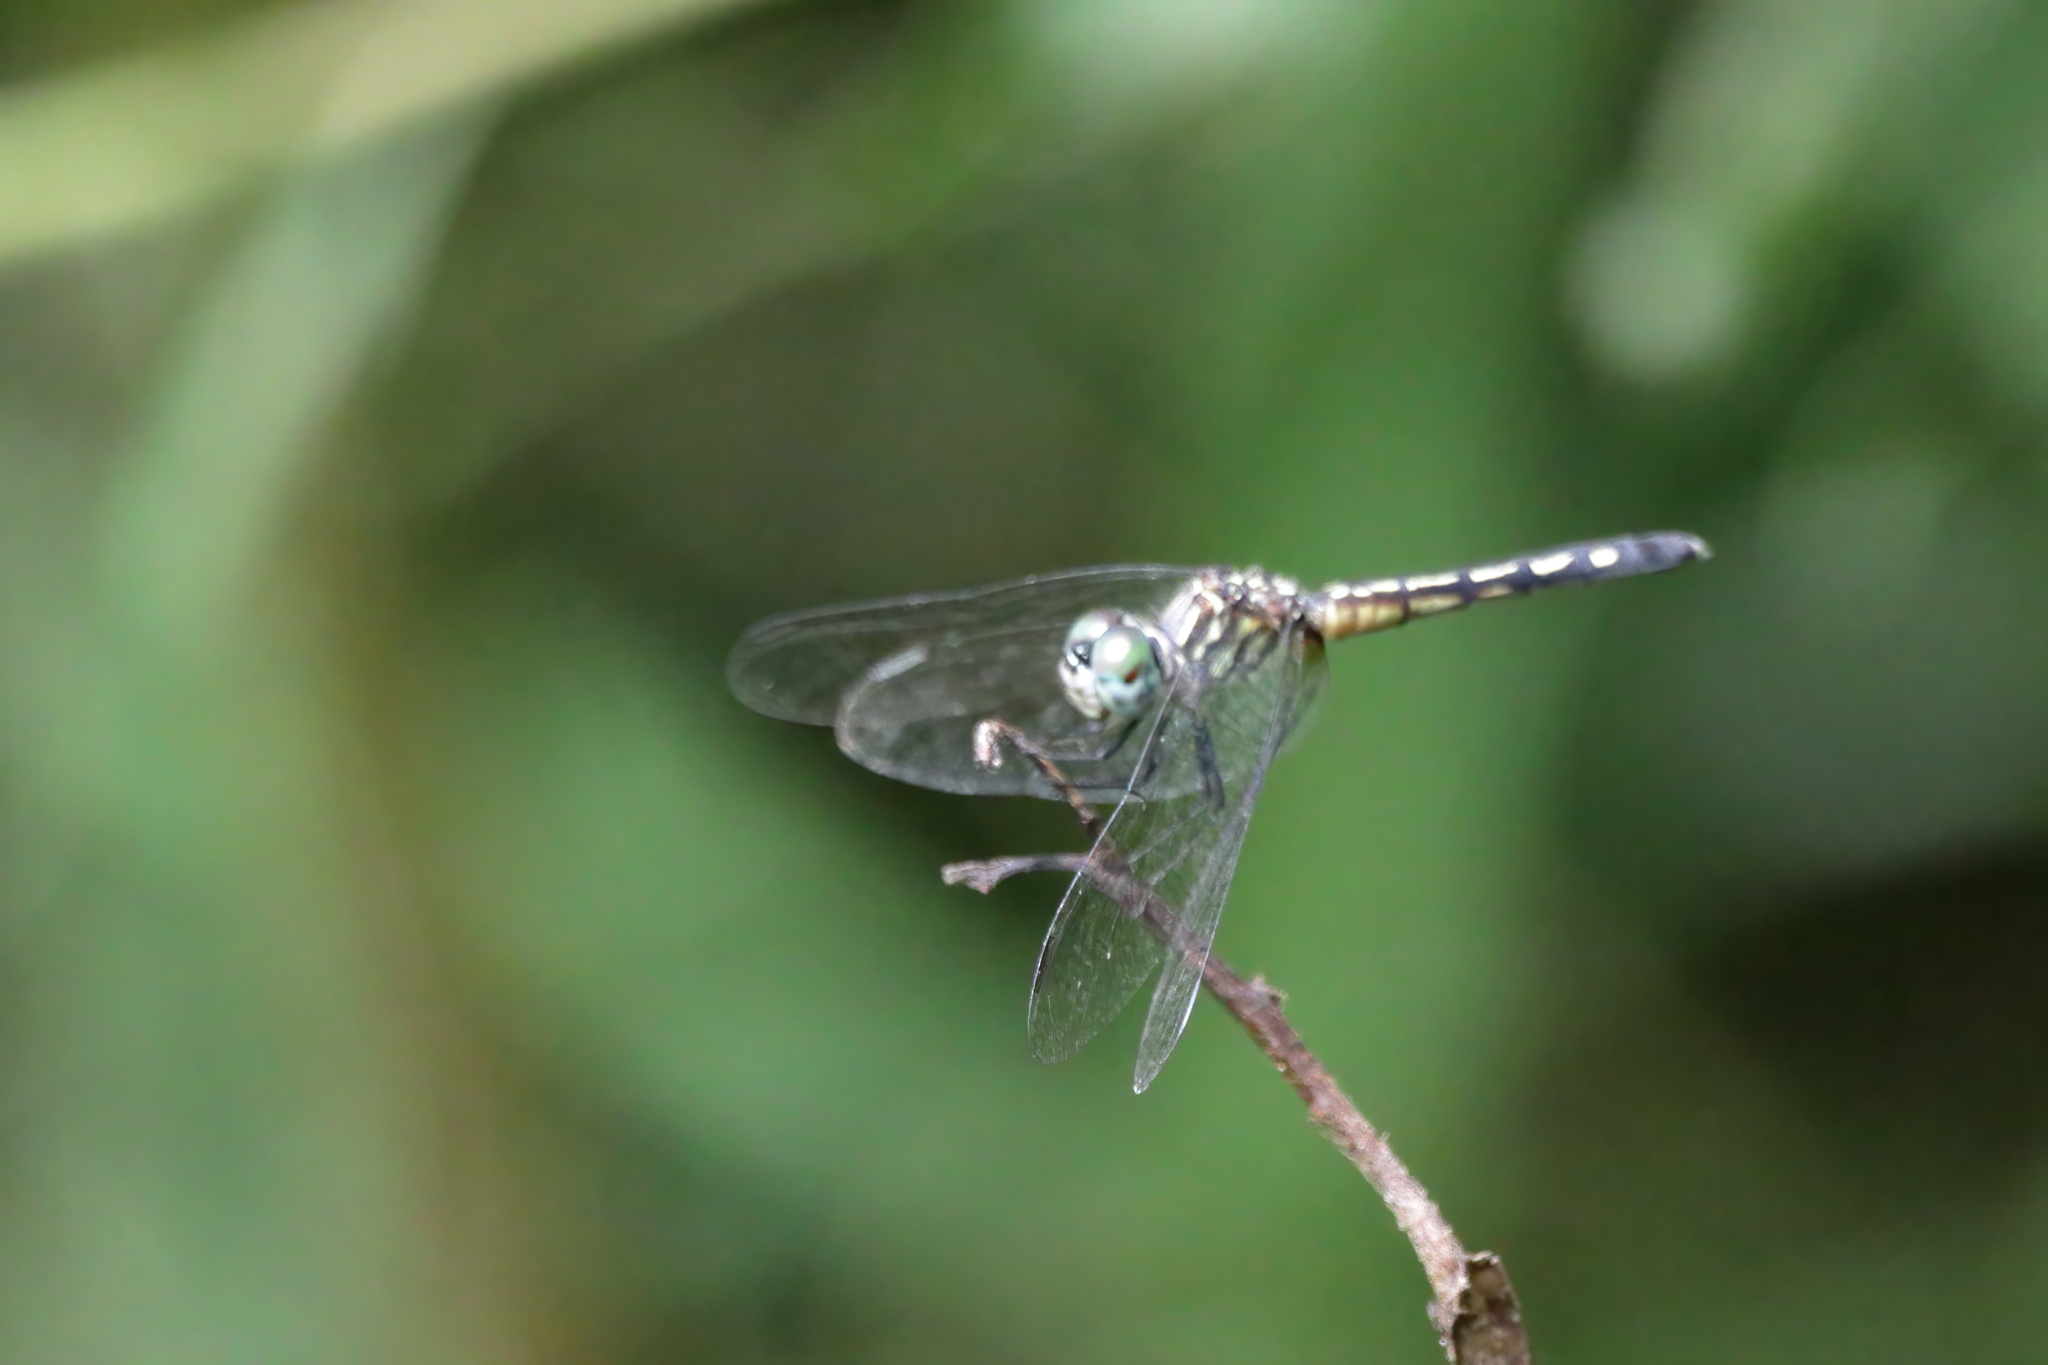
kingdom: Animalia
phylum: Arthropoda
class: Insecta
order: Odonata
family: Libellulidae
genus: Pachydiplax
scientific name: Pachydiplax longipennis
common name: Blue dasher
